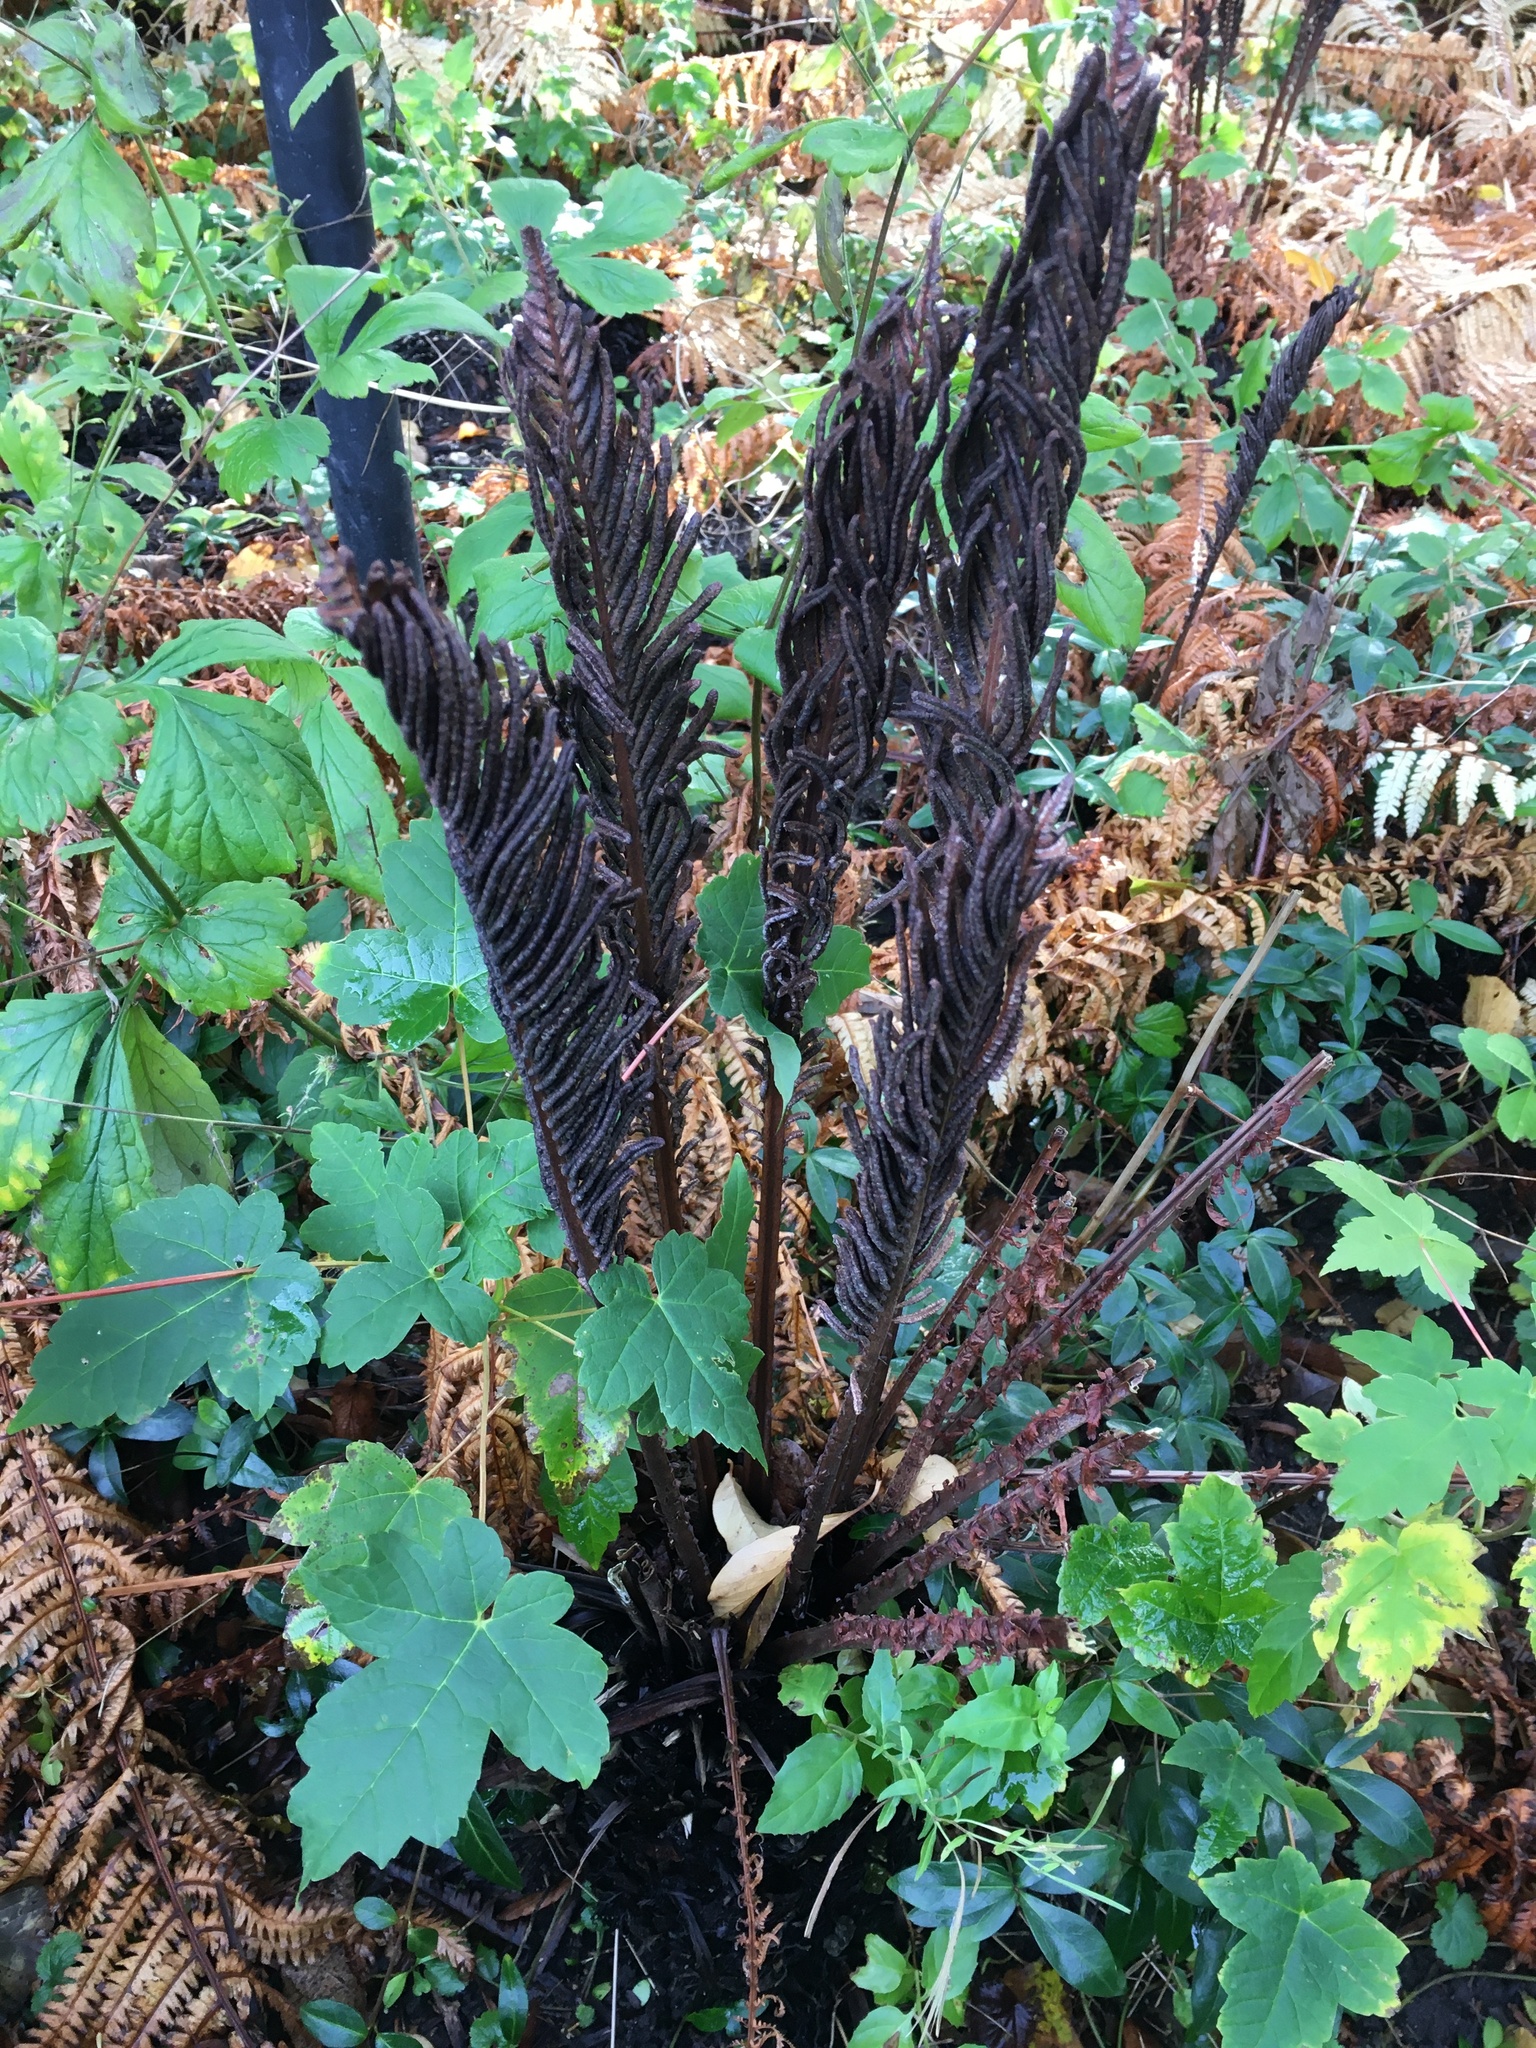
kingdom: Plantae
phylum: Tracheophyta
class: Polypodiopsida
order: Polypodiales
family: Onocleaceae
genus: Matteuccia
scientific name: Matteuccia struthiopteris
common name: Ostrich fern
